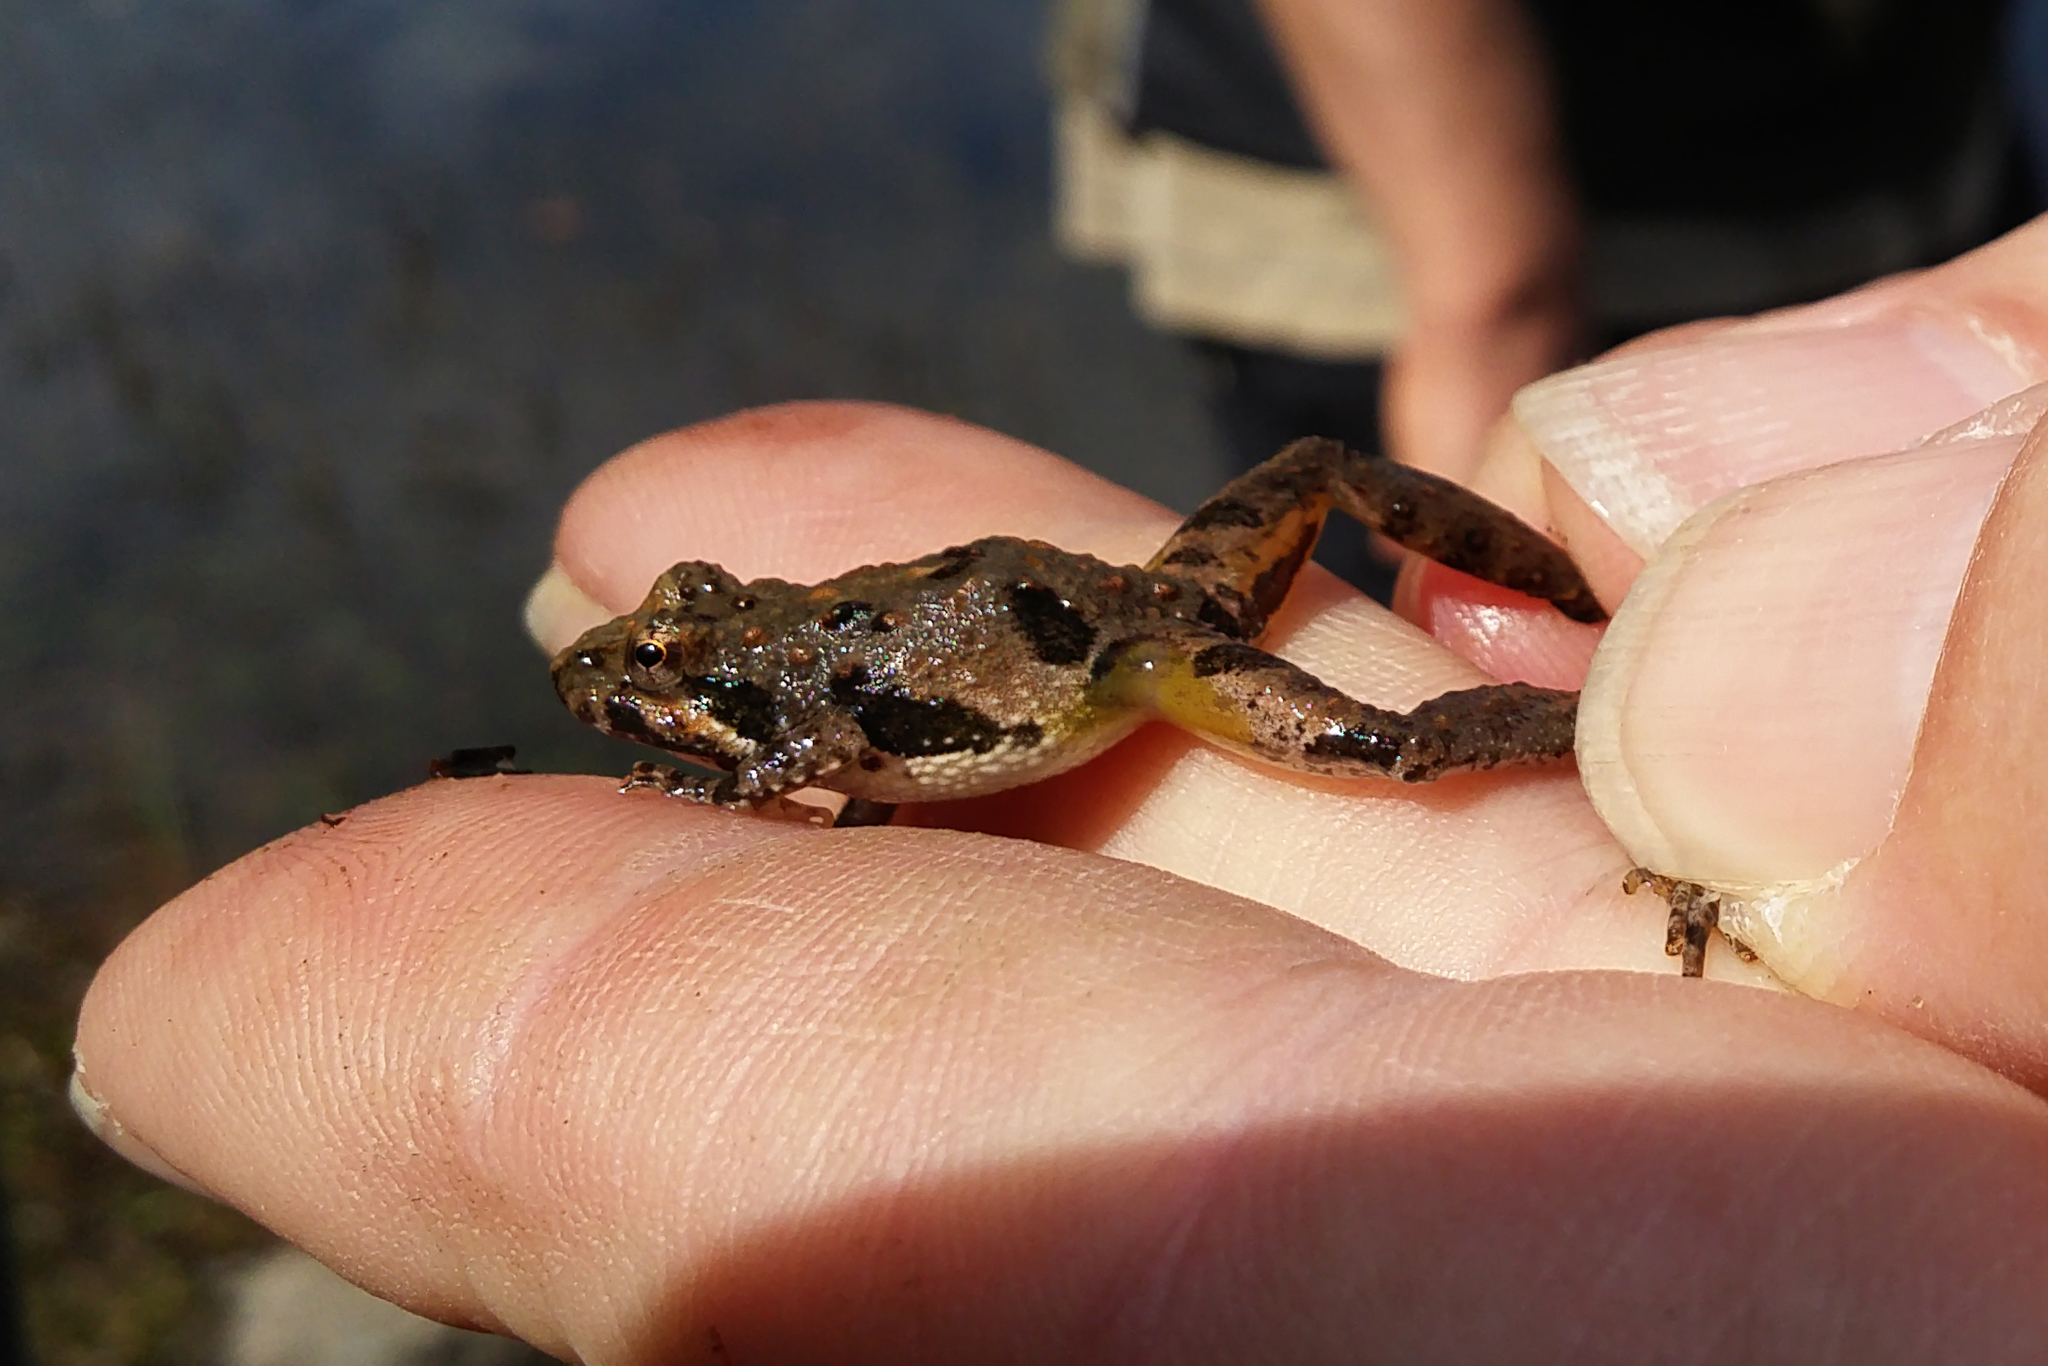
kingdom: Animalia
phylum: Chordata
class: Amphibia
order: Anura
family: Hylidae
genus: Acris
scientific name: Acris crepitans
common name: Northern cricket frog
